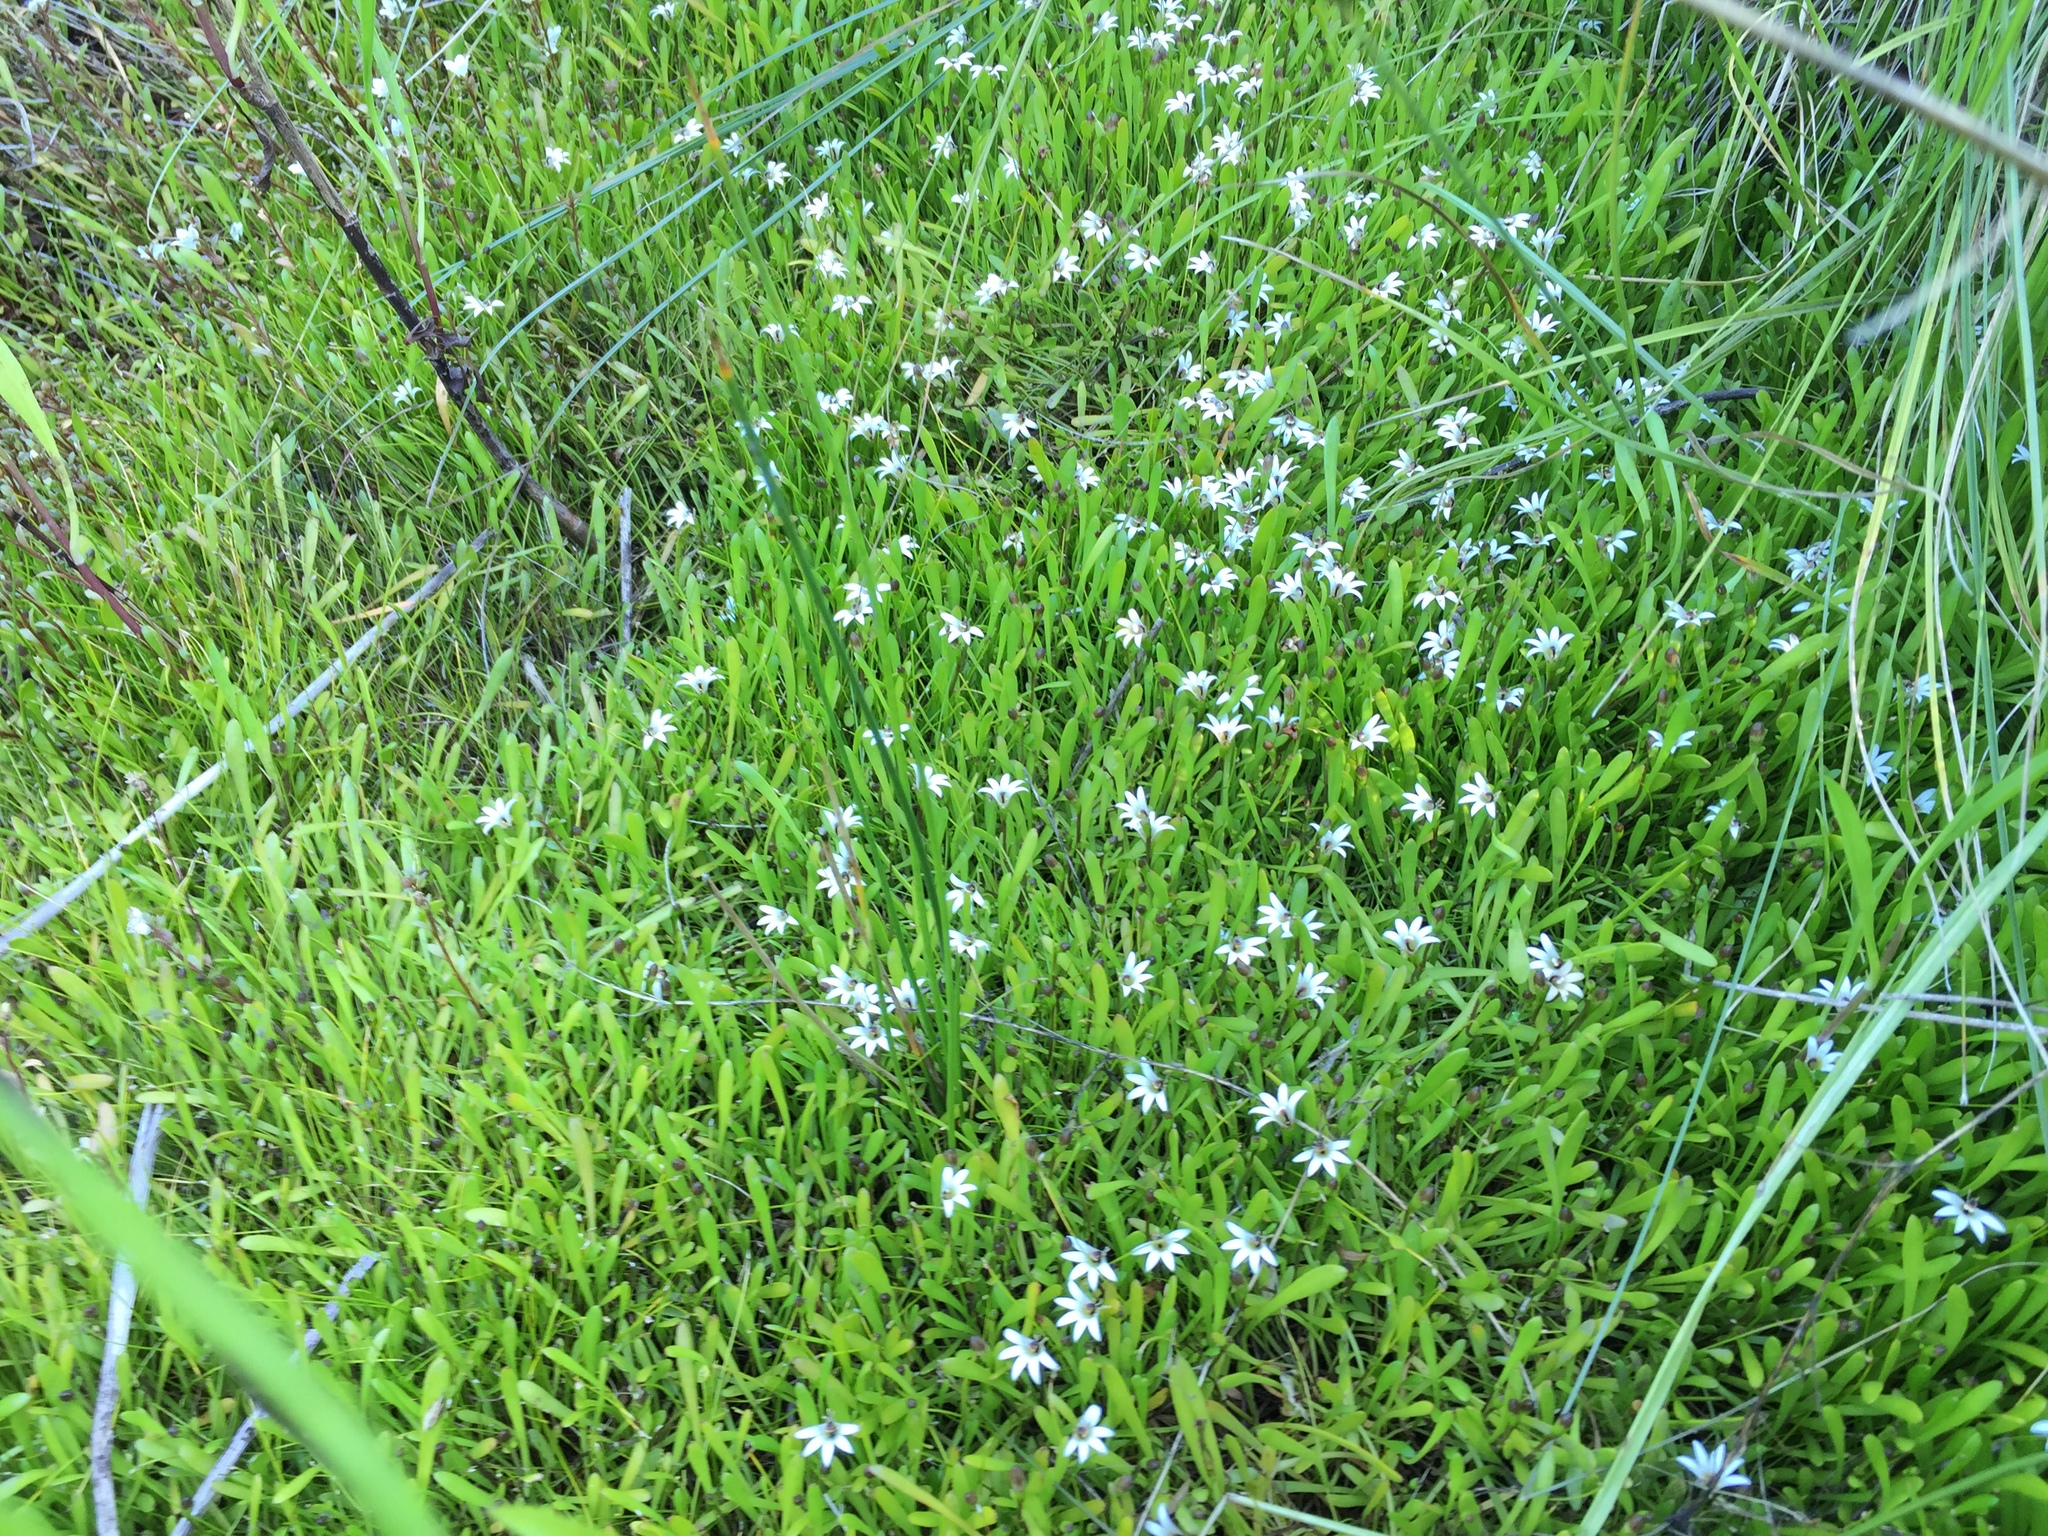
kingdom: Plantae
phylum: Tracheophyta
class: Magnoliopsida
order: Asterales
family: Goodeniaceae
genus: Goodenia
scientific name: Goodenia radicans
